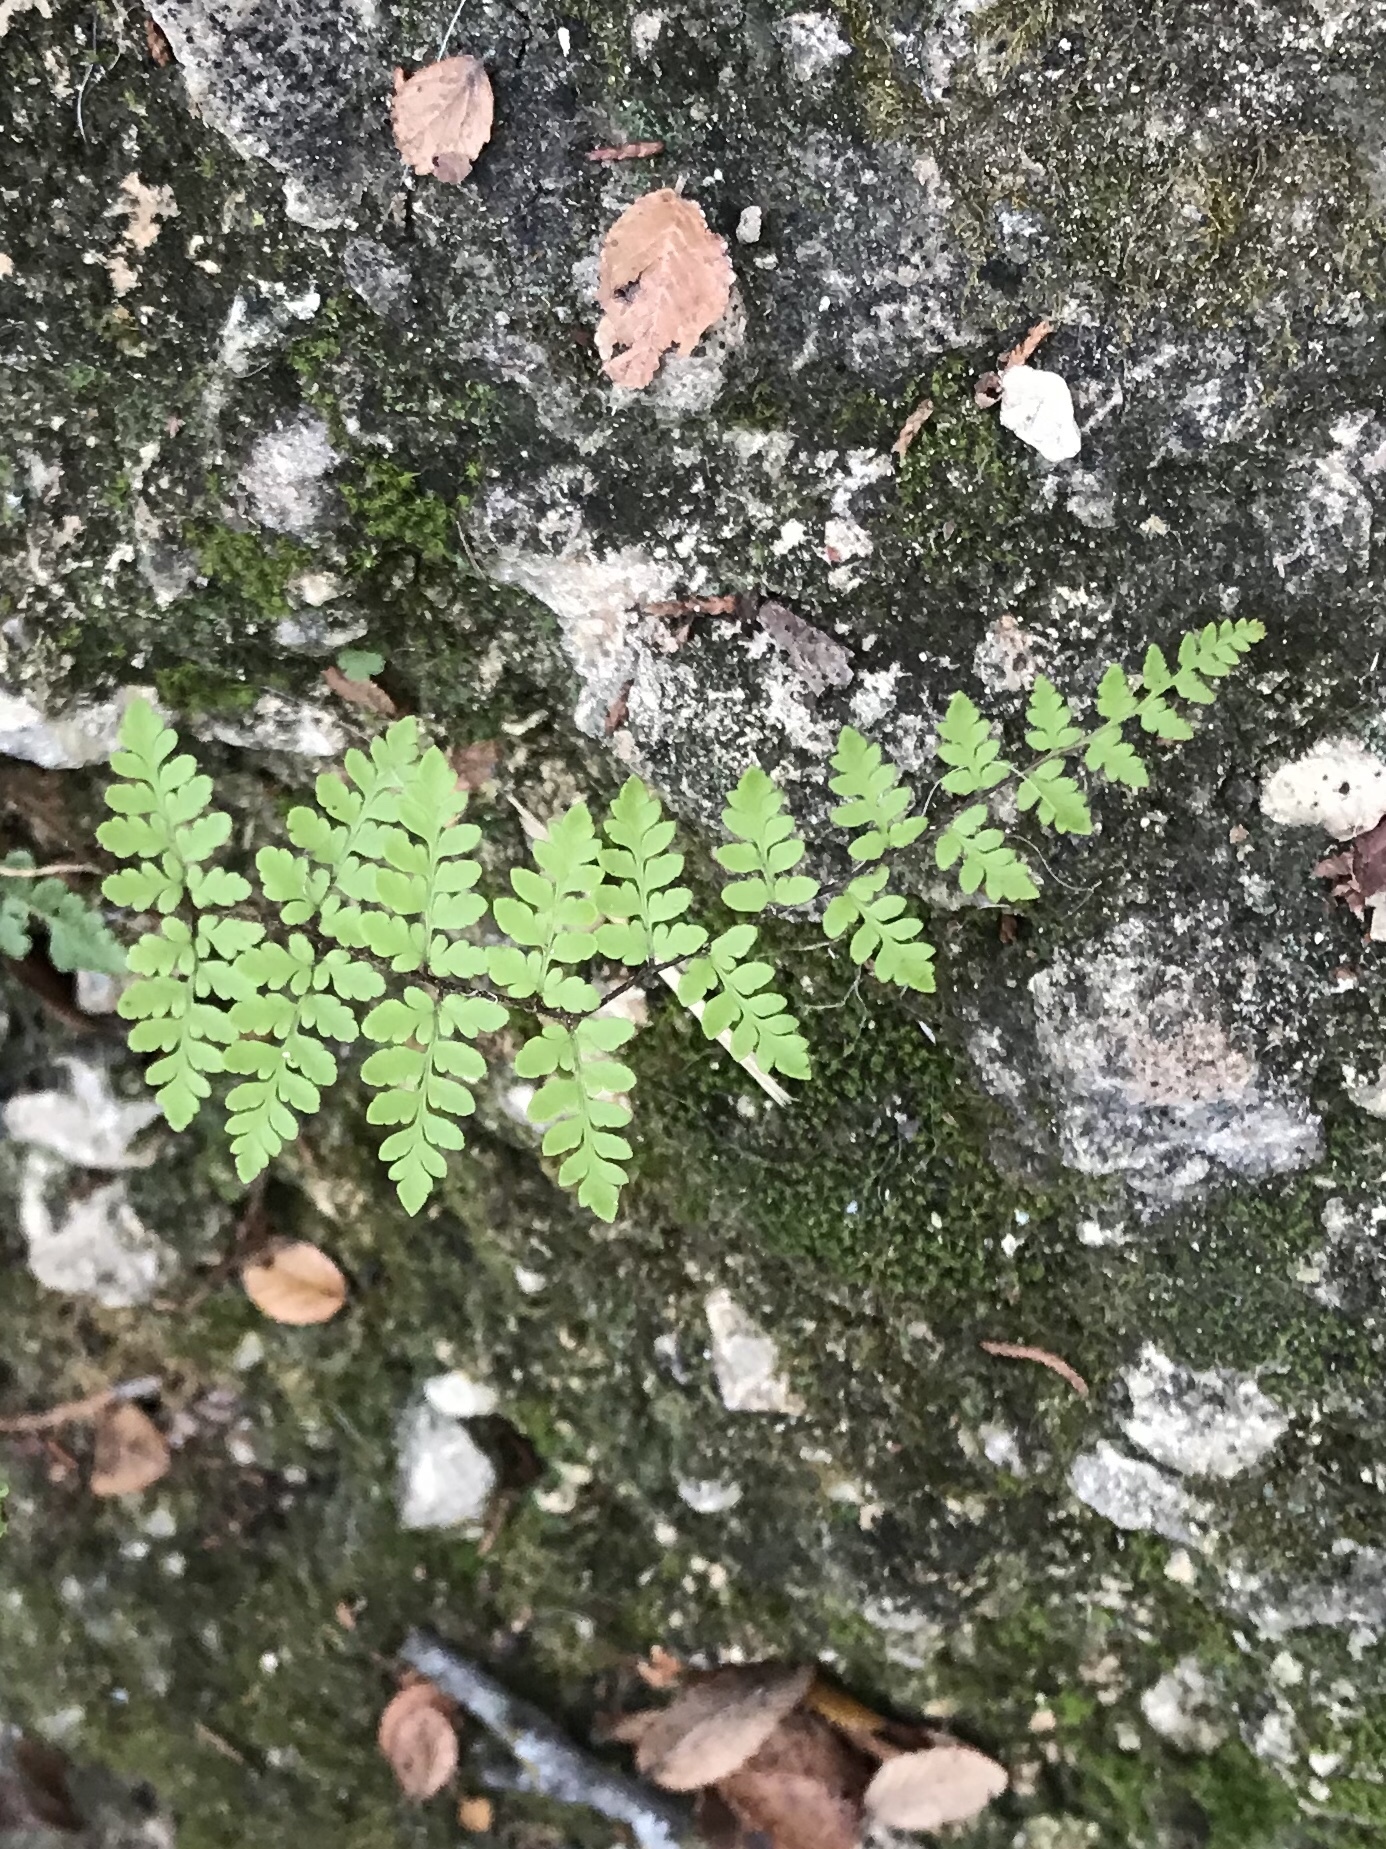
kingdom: Plantae
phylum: Tracheophyta
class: Polypodiopsida
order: Polypodiales
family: Pteridaceae
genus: Myriopteris
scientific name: Myriopteris alabamensis
